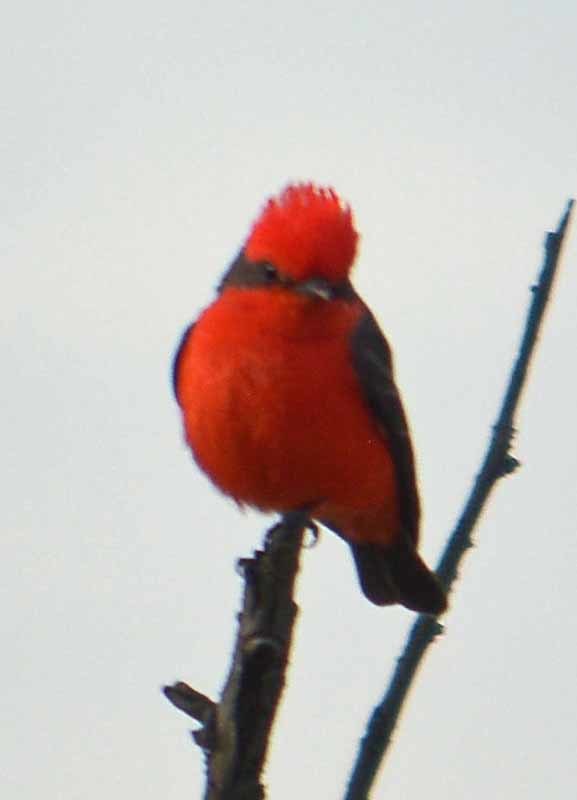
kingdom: Animalia
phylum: Chordata
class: Aves
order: Passeriformes
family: Tyrannidae
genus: Pyrocephalus
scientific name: Pyrocephalus rubinus
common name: Vermilion flycatcher
